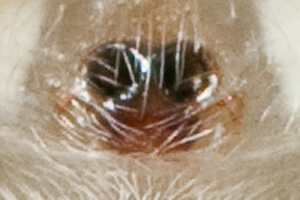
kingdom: Animalia
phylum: Arthropoda
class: Arachnida
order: Araneae
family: Salticidae
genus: Colonus
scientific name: Colonus puerperus
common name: Jumping spiders
